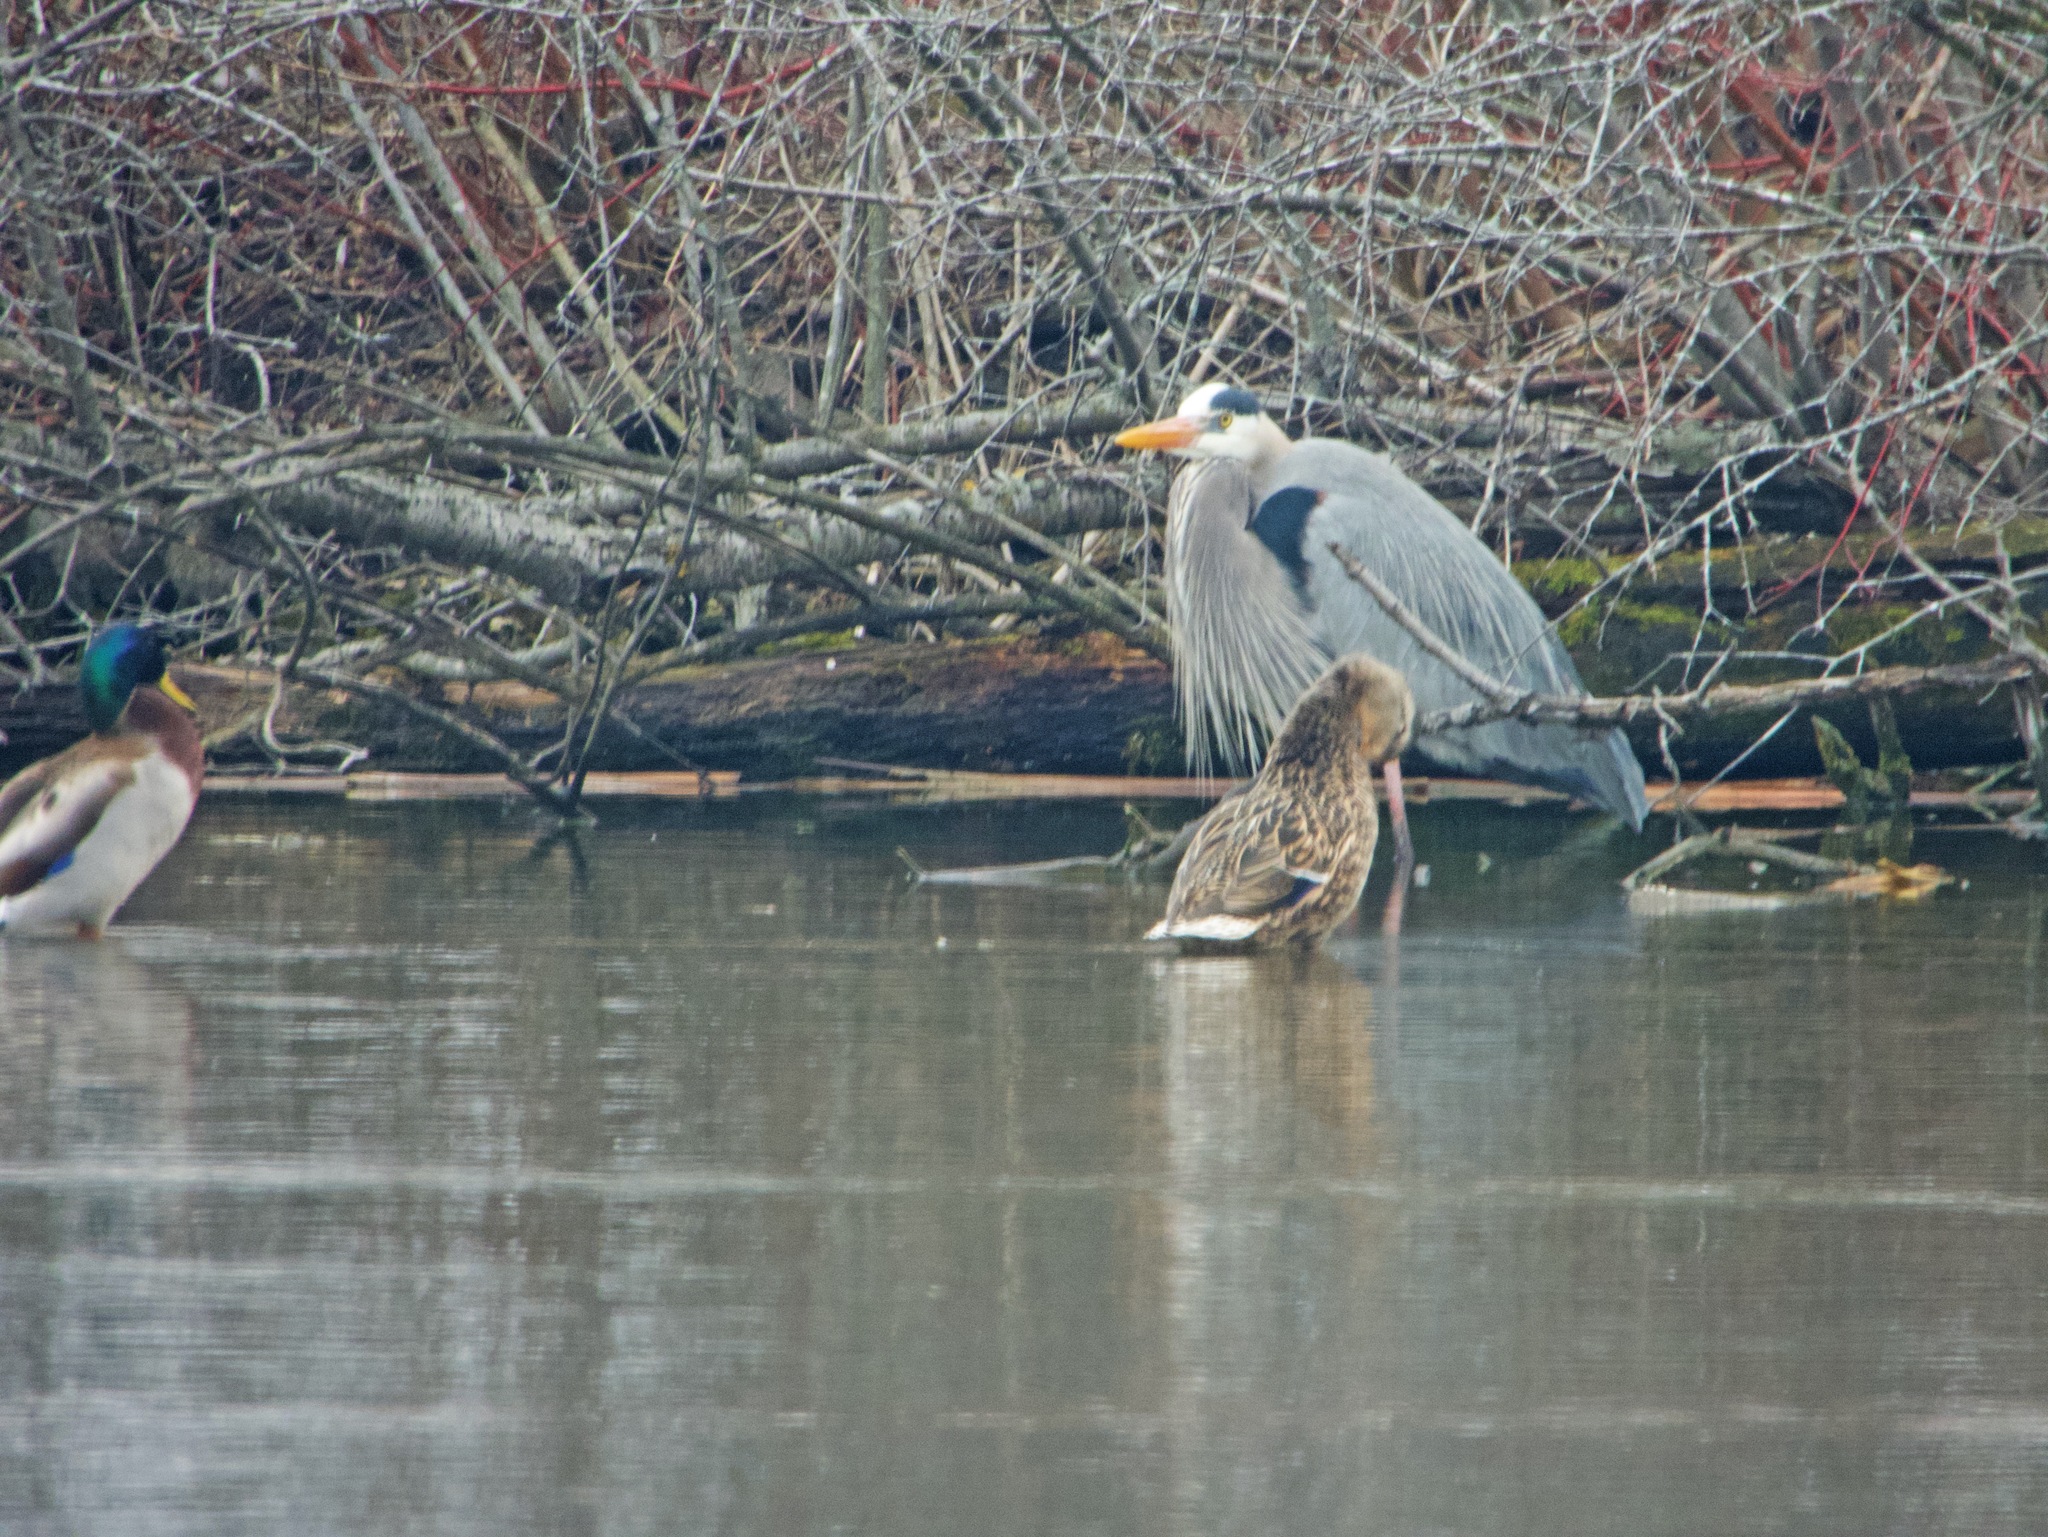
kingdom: Animalia
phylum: Chordata
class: Aves
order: Pelecaniformes
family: Ardeidae
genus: Ardea
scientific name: Ardea herodias
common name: Great blue heron
